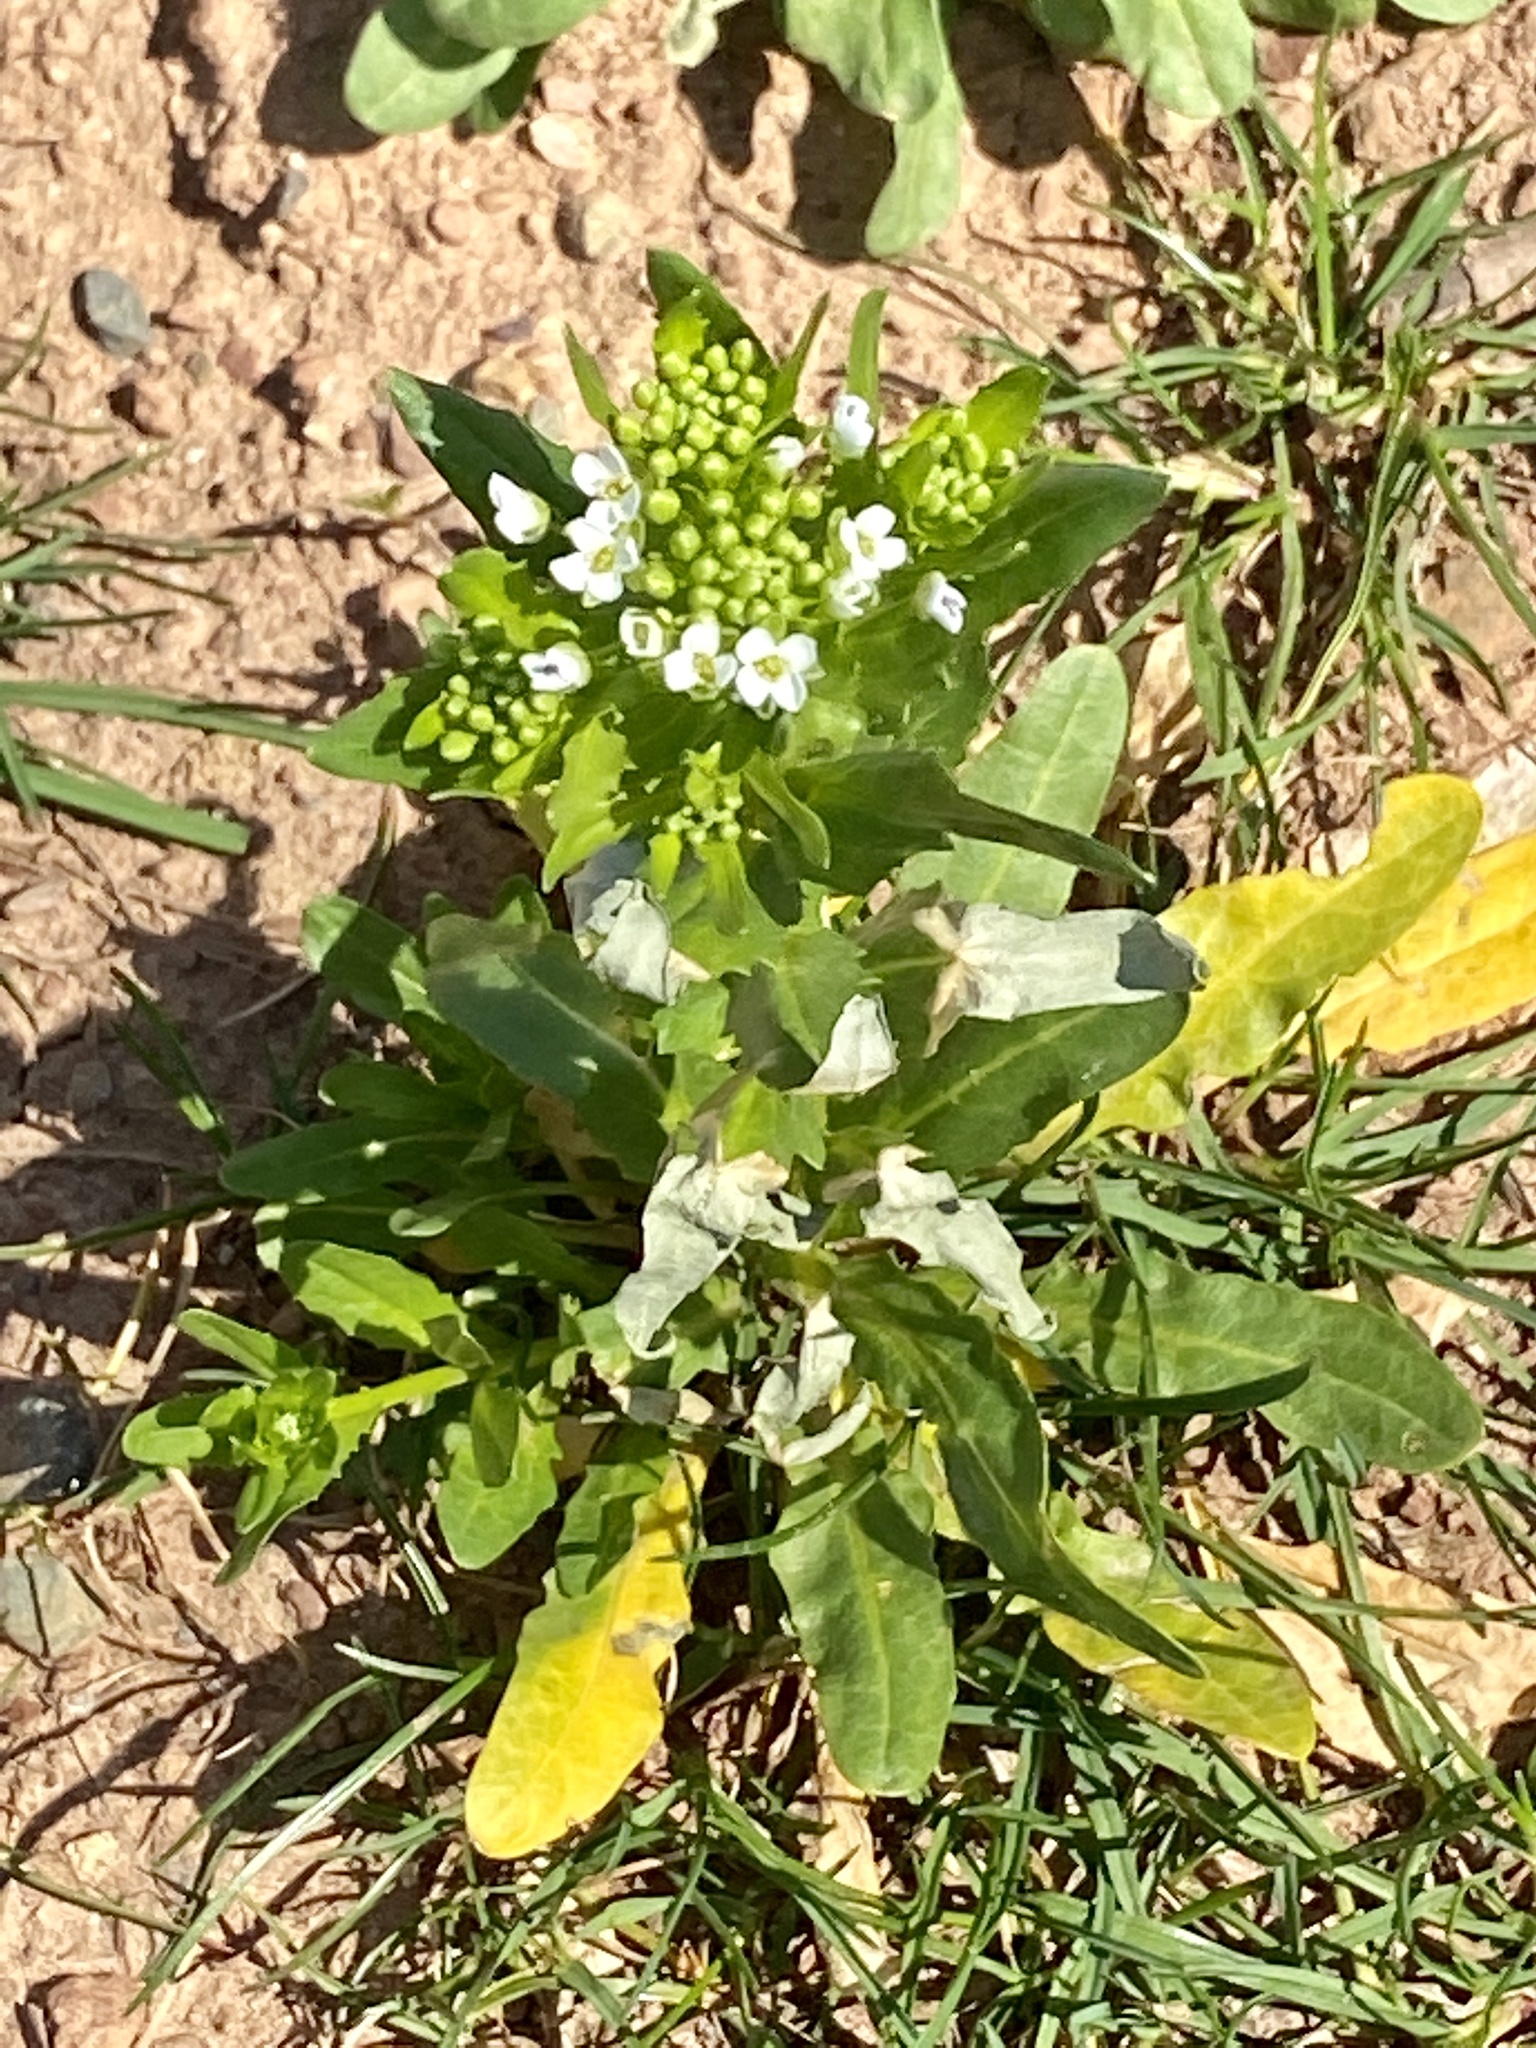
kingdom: Plantae
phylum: Tracheophyta
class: Magnoliopsida
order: Brassicales
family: Brassicaceae
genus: Thlaspi
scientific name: Thlaspi arvense
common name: Field pennycress
